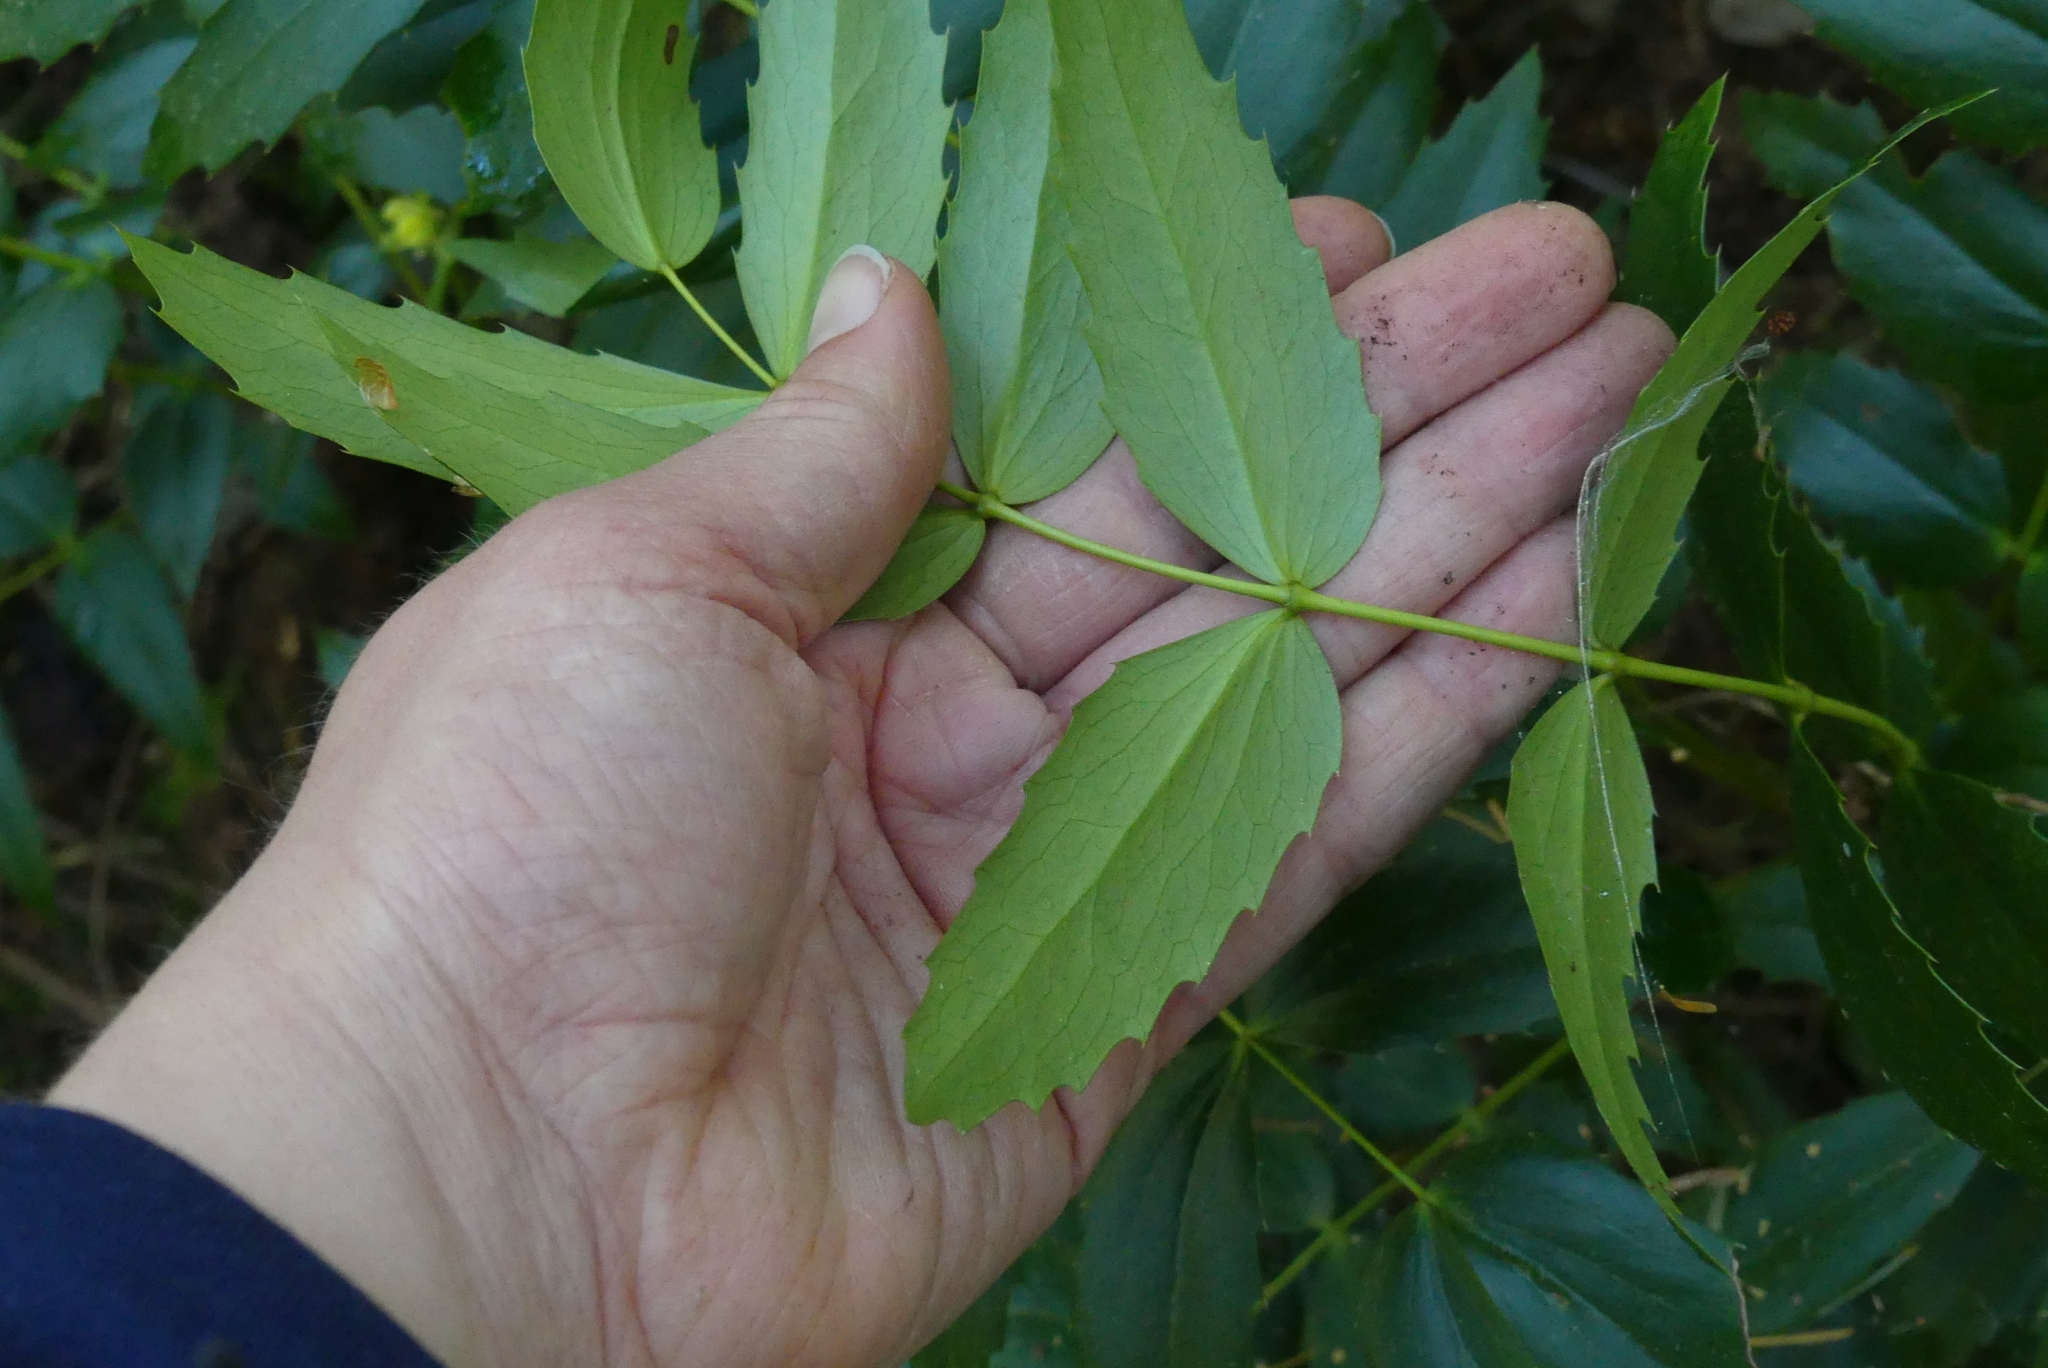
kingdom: Plantae
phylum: Tracheophyta
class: Magnoliopsida
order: Ranunculales
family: Berberidaceae
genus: Mahonia
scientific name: Mahonia nervosa
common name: Cascade oregon-grape
